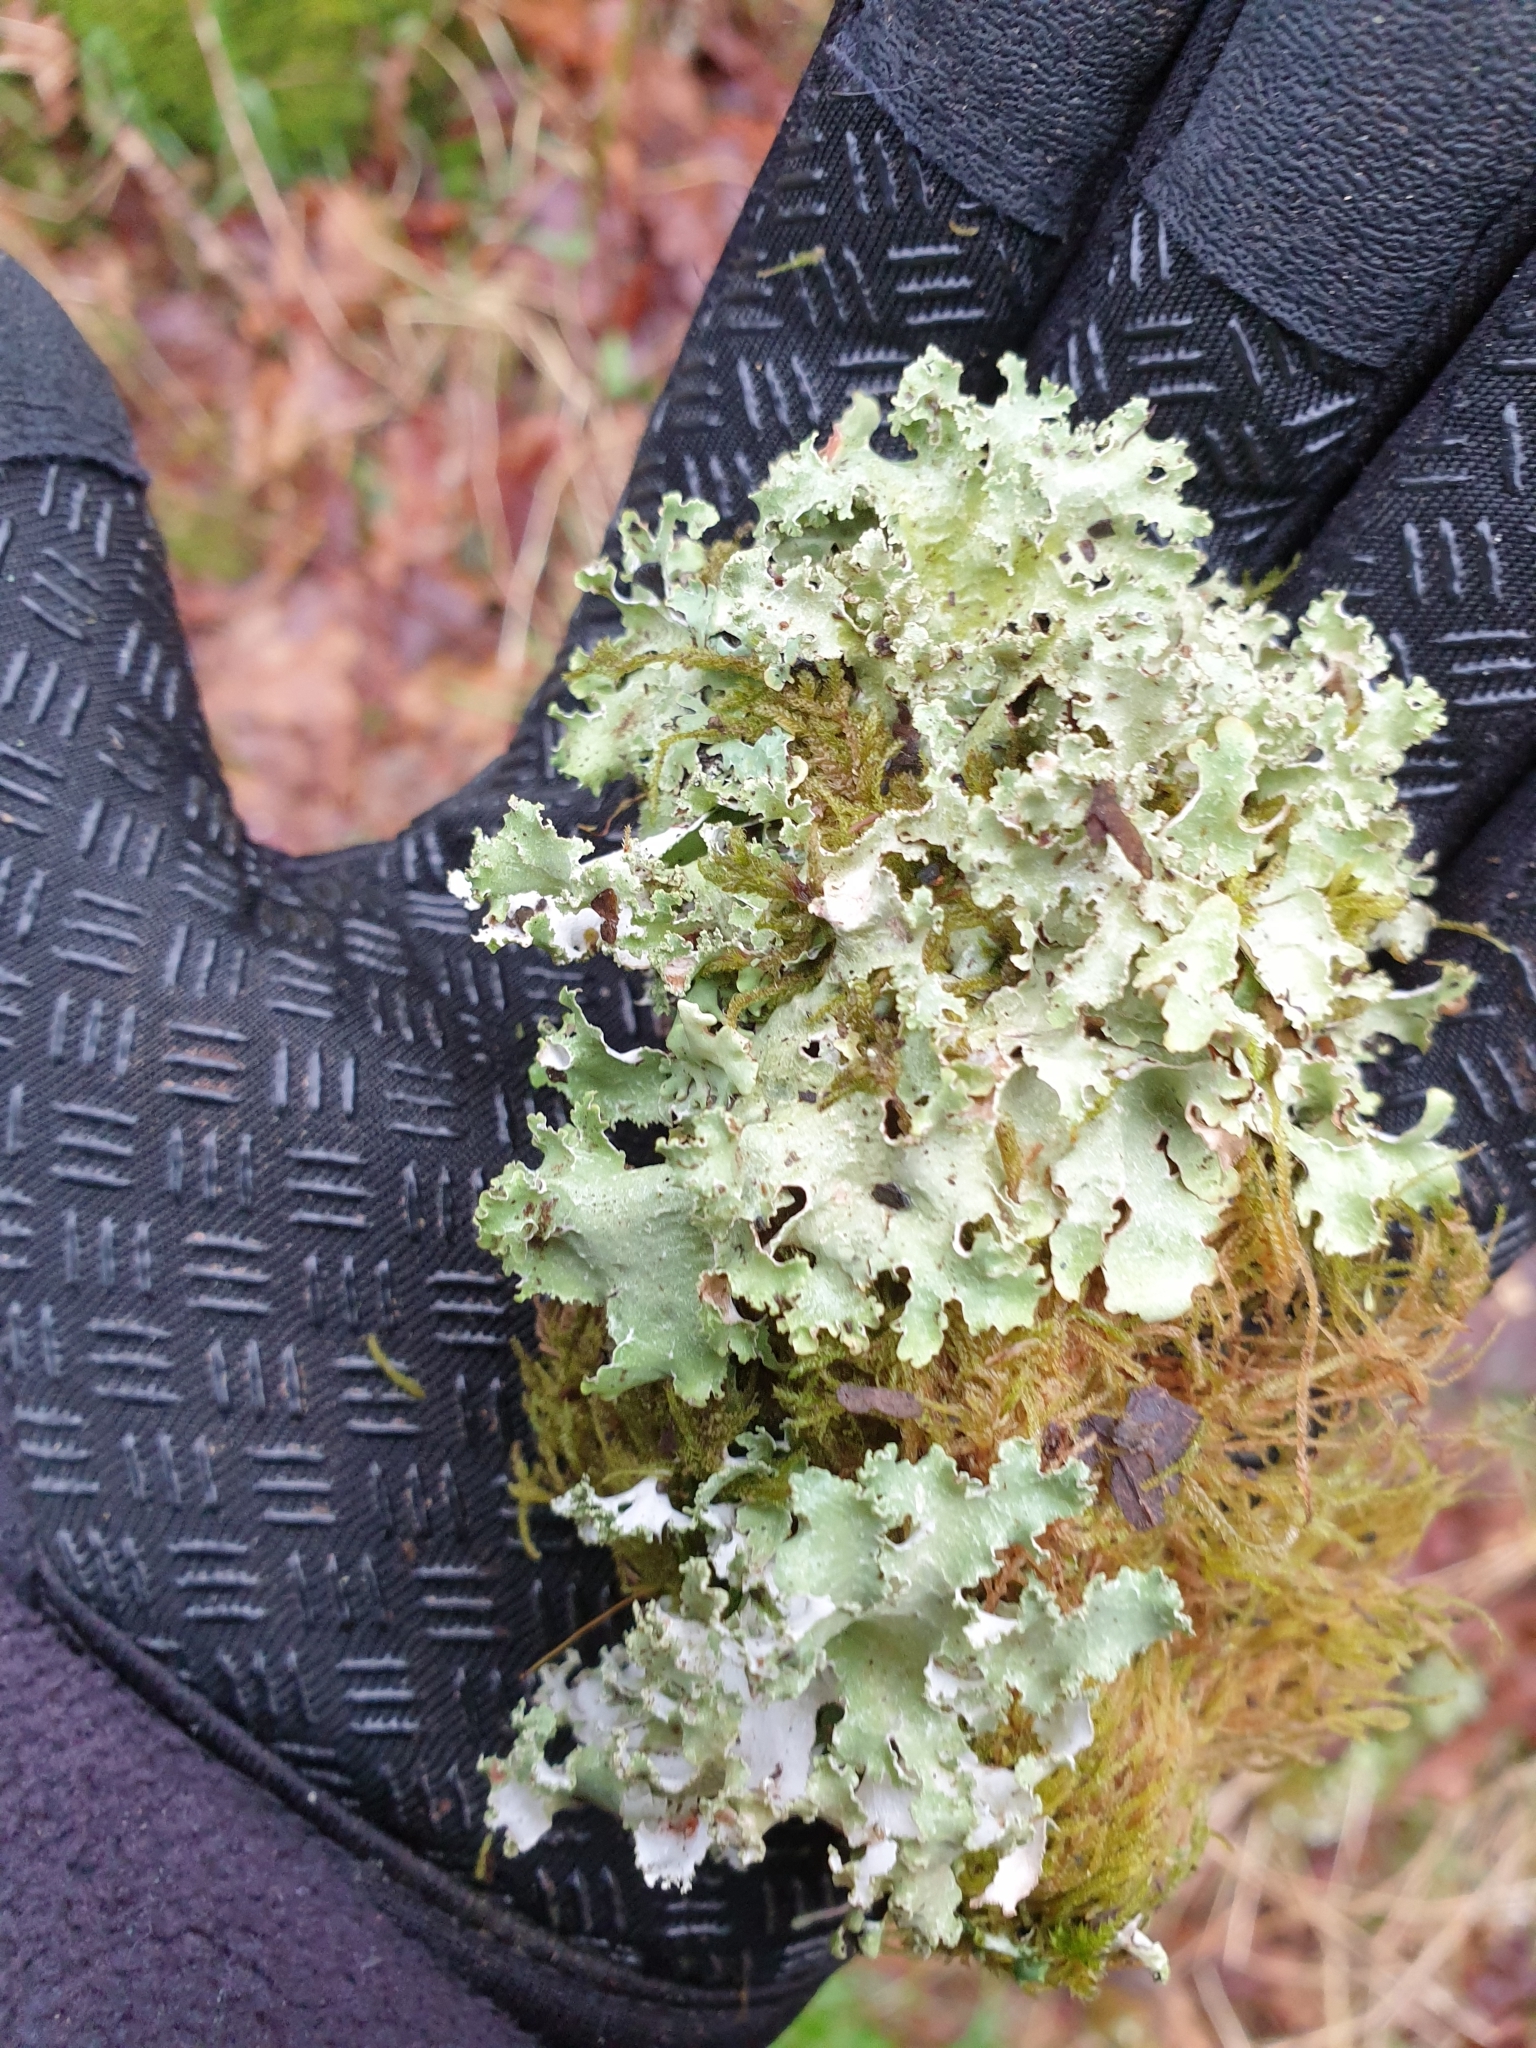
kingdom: Fungi
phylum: Ascomycota
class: Lecanoromycetes
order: Lecanorales
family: Parmeliaceae
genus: Platismatia
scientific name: Platismatia glauca
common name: Varied rag lichen
